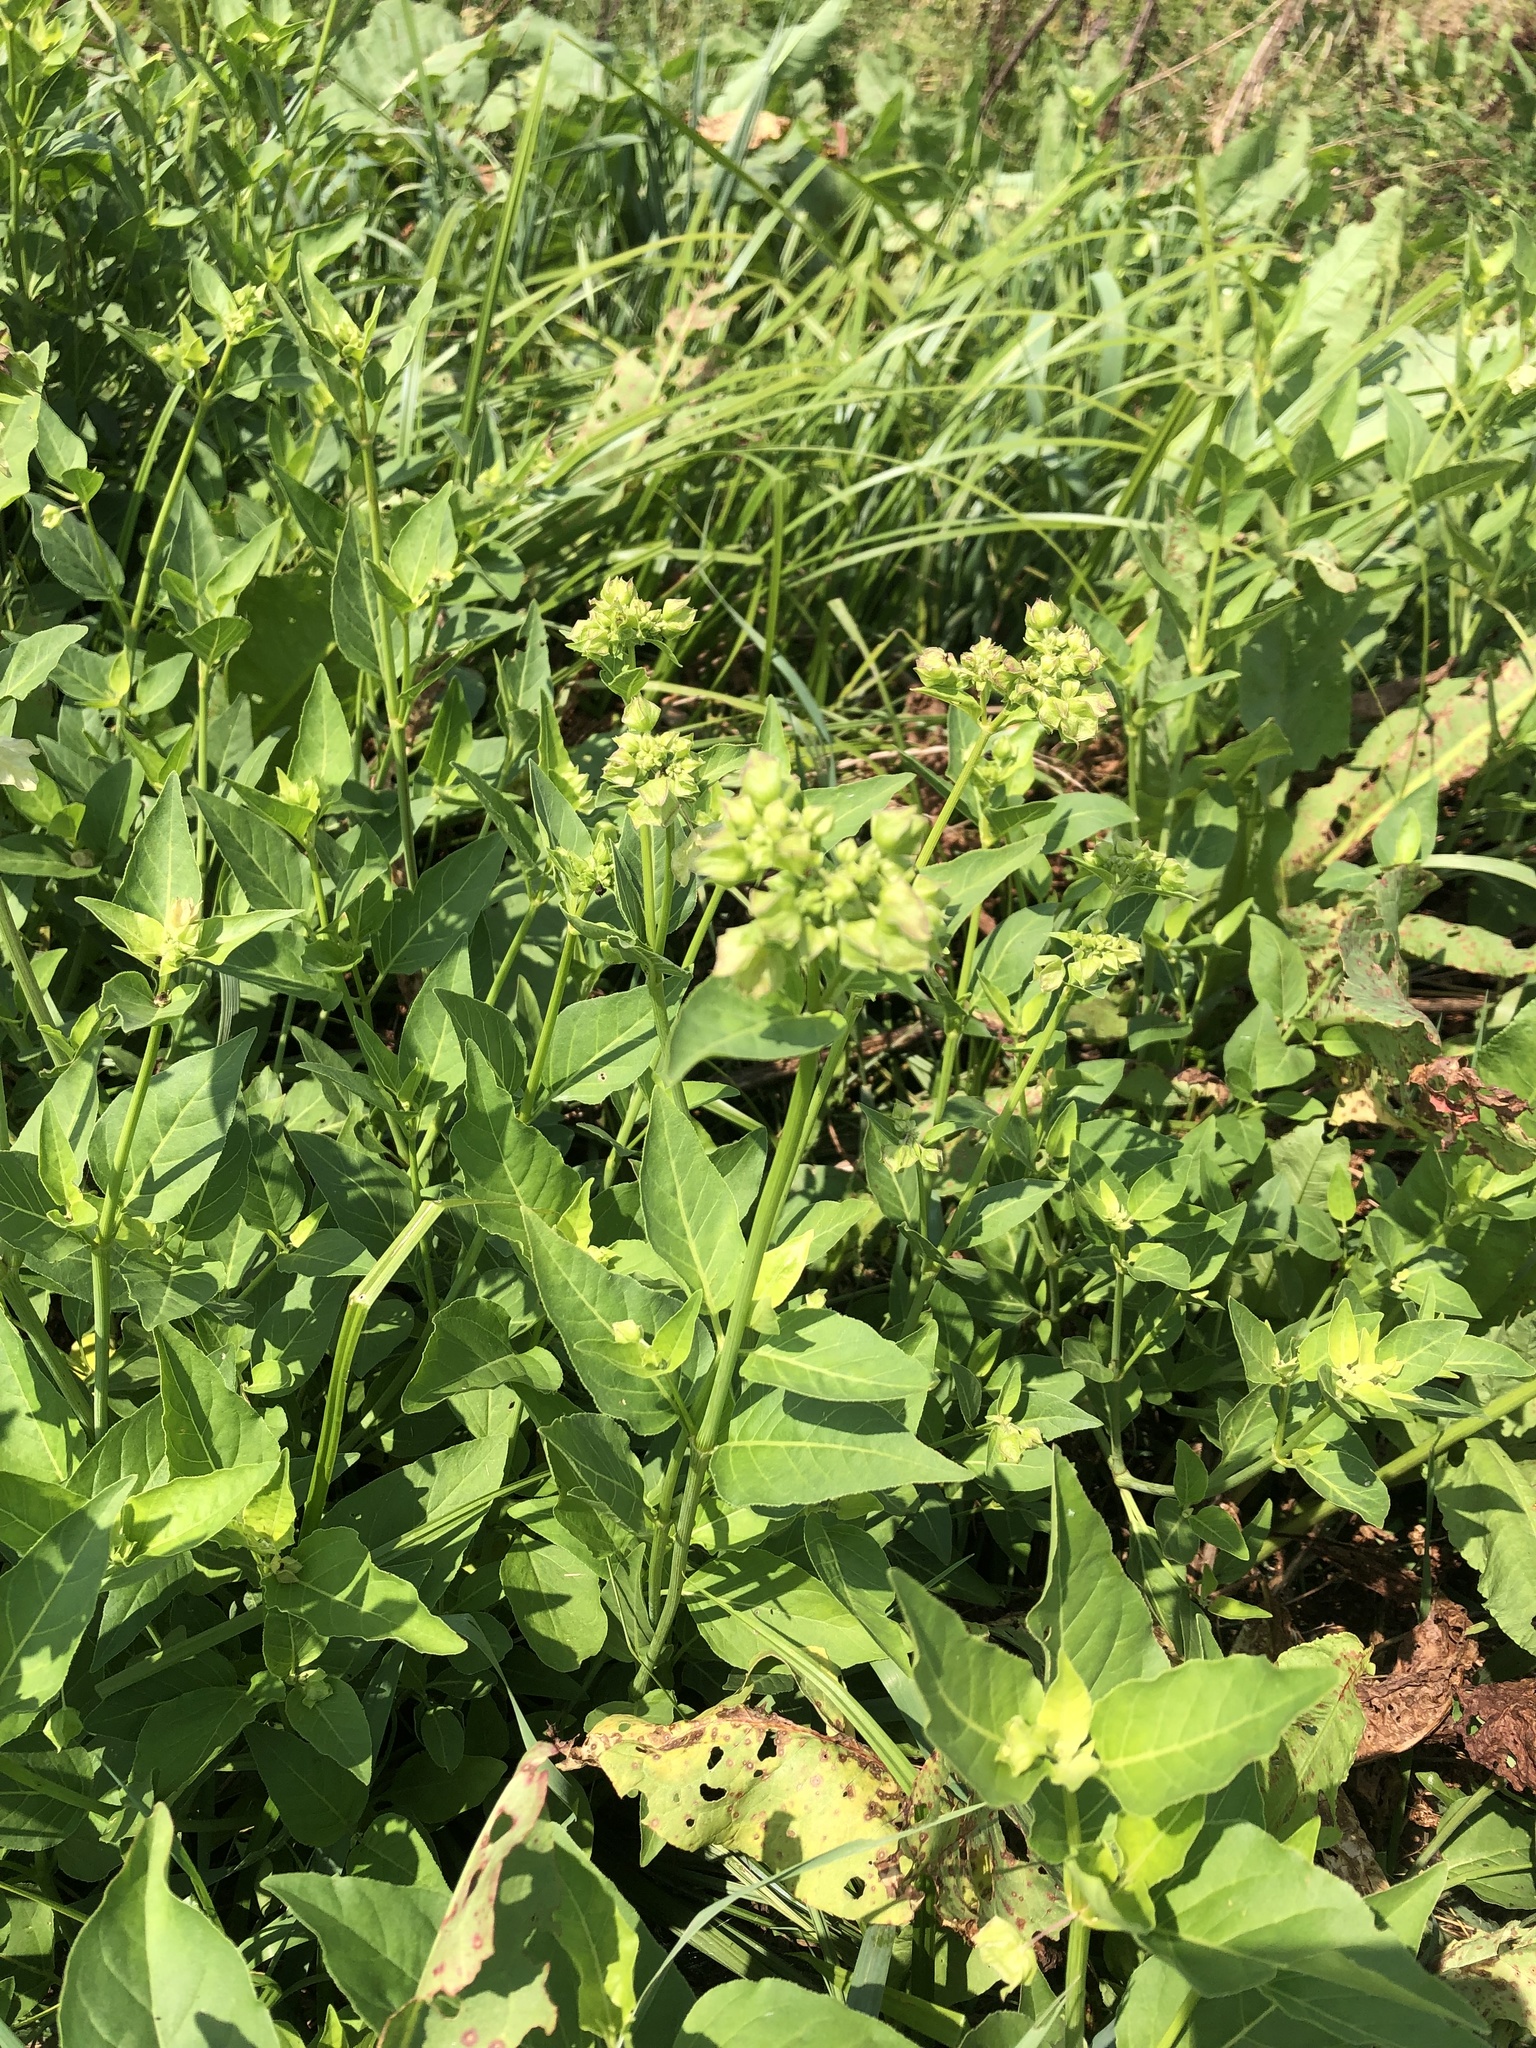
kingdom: Plantae
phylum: Tracheophyta
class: Magnoliopsida
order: Caryophyllales
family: Nyctaginaceae
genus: Mirabilis
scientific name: Mirabilis nyctaginea
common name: Umbrella wort
